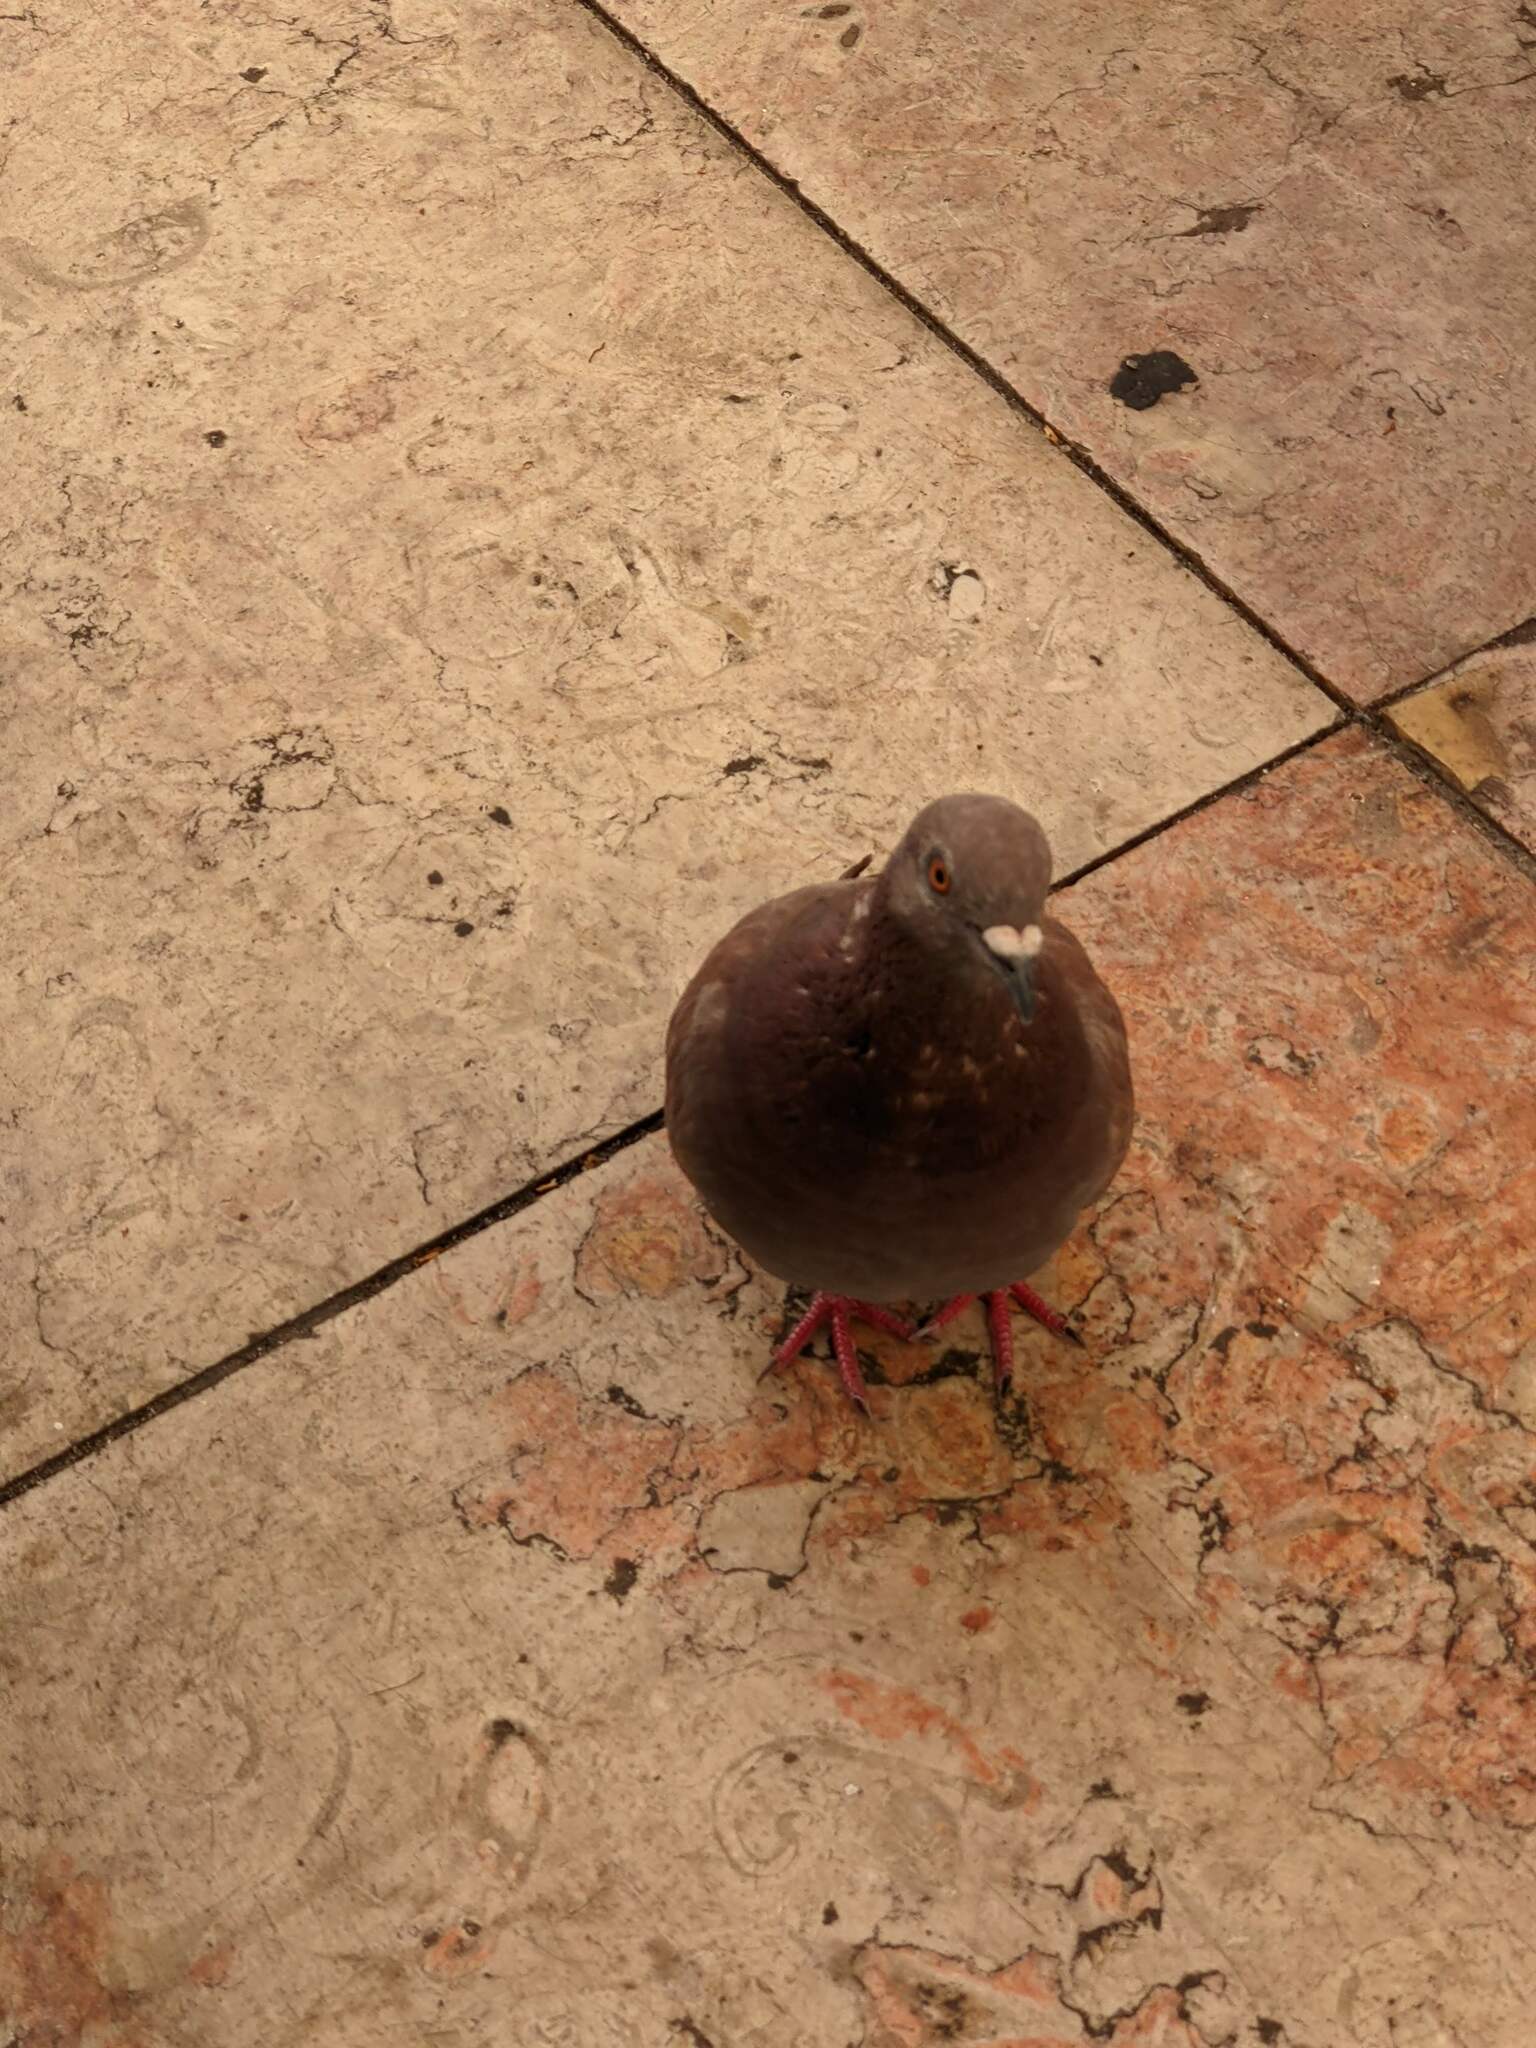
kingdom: Animalia
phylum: Chordata
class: Aves
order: Columbiformes
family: Columbidae
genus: Columba
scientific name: Columba livia
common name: Rock pigeon
